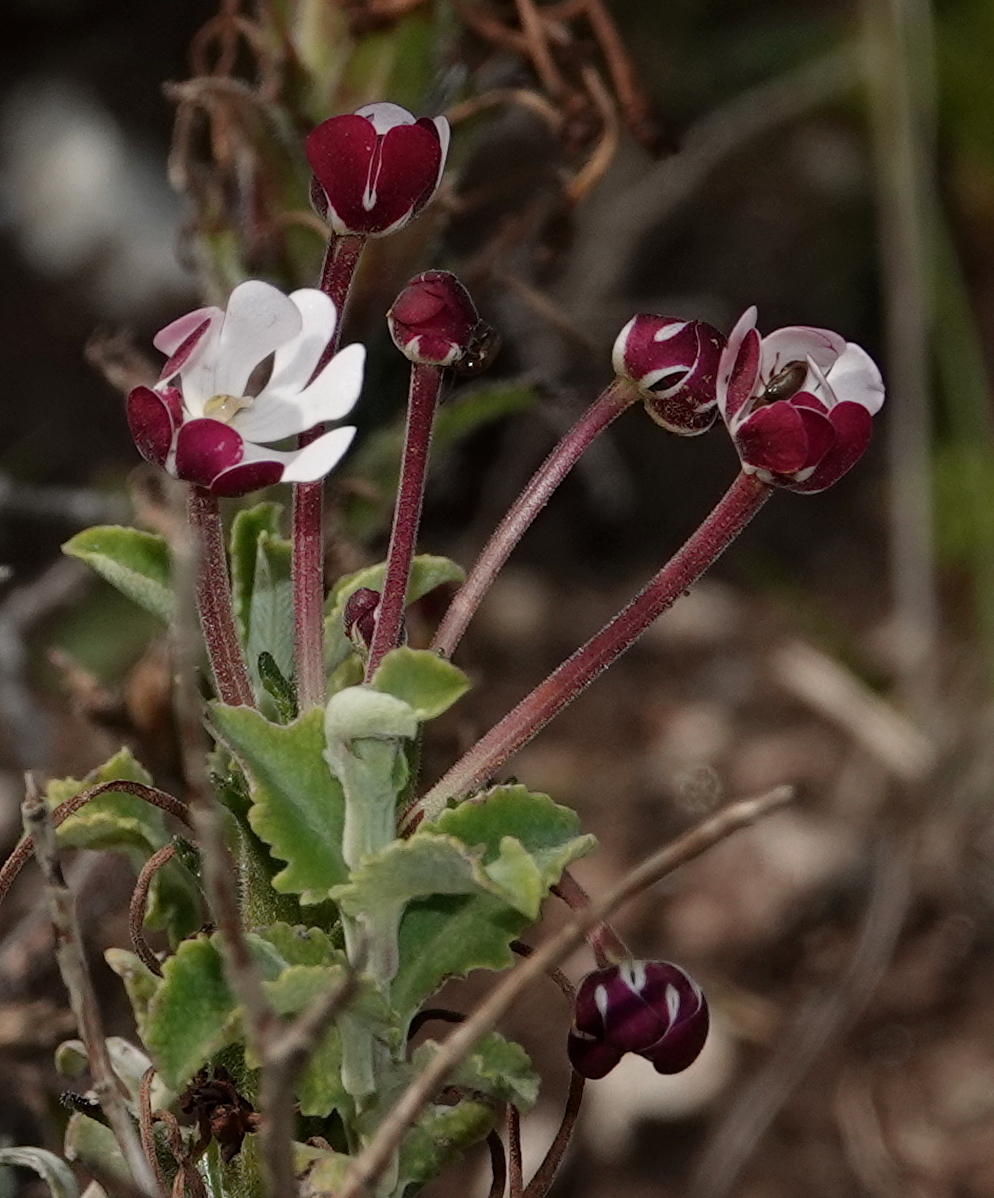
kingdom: Plantae
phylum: Tracheophyta
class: Magnoliopsida
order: Lamiales
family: Scrophulariaceae
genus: Zaluzianskya
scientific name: Zaluzianskya capensis
